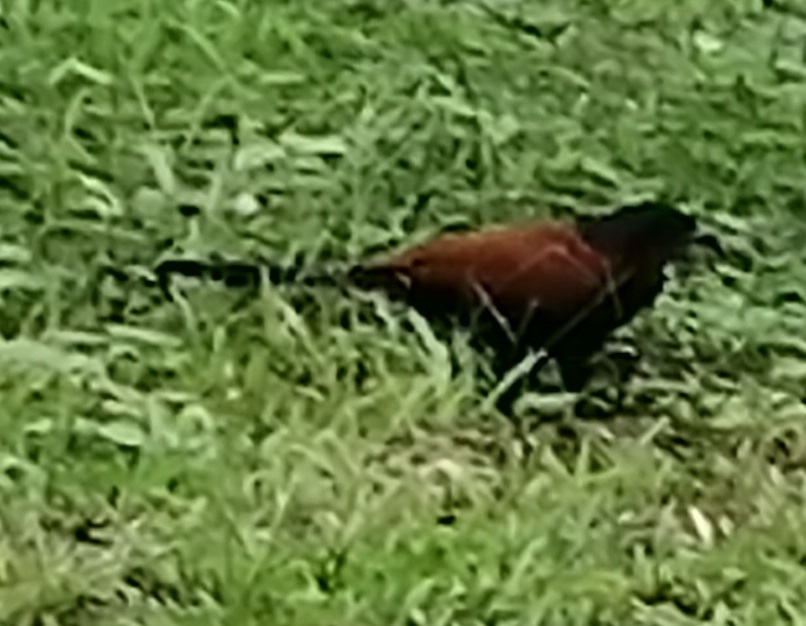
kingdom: Animalia
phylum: Chordata
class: Aves
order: Cuculiformes
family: Cuculidae
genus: Centropus
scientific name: Centropus sinensis
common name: Greater coucal
